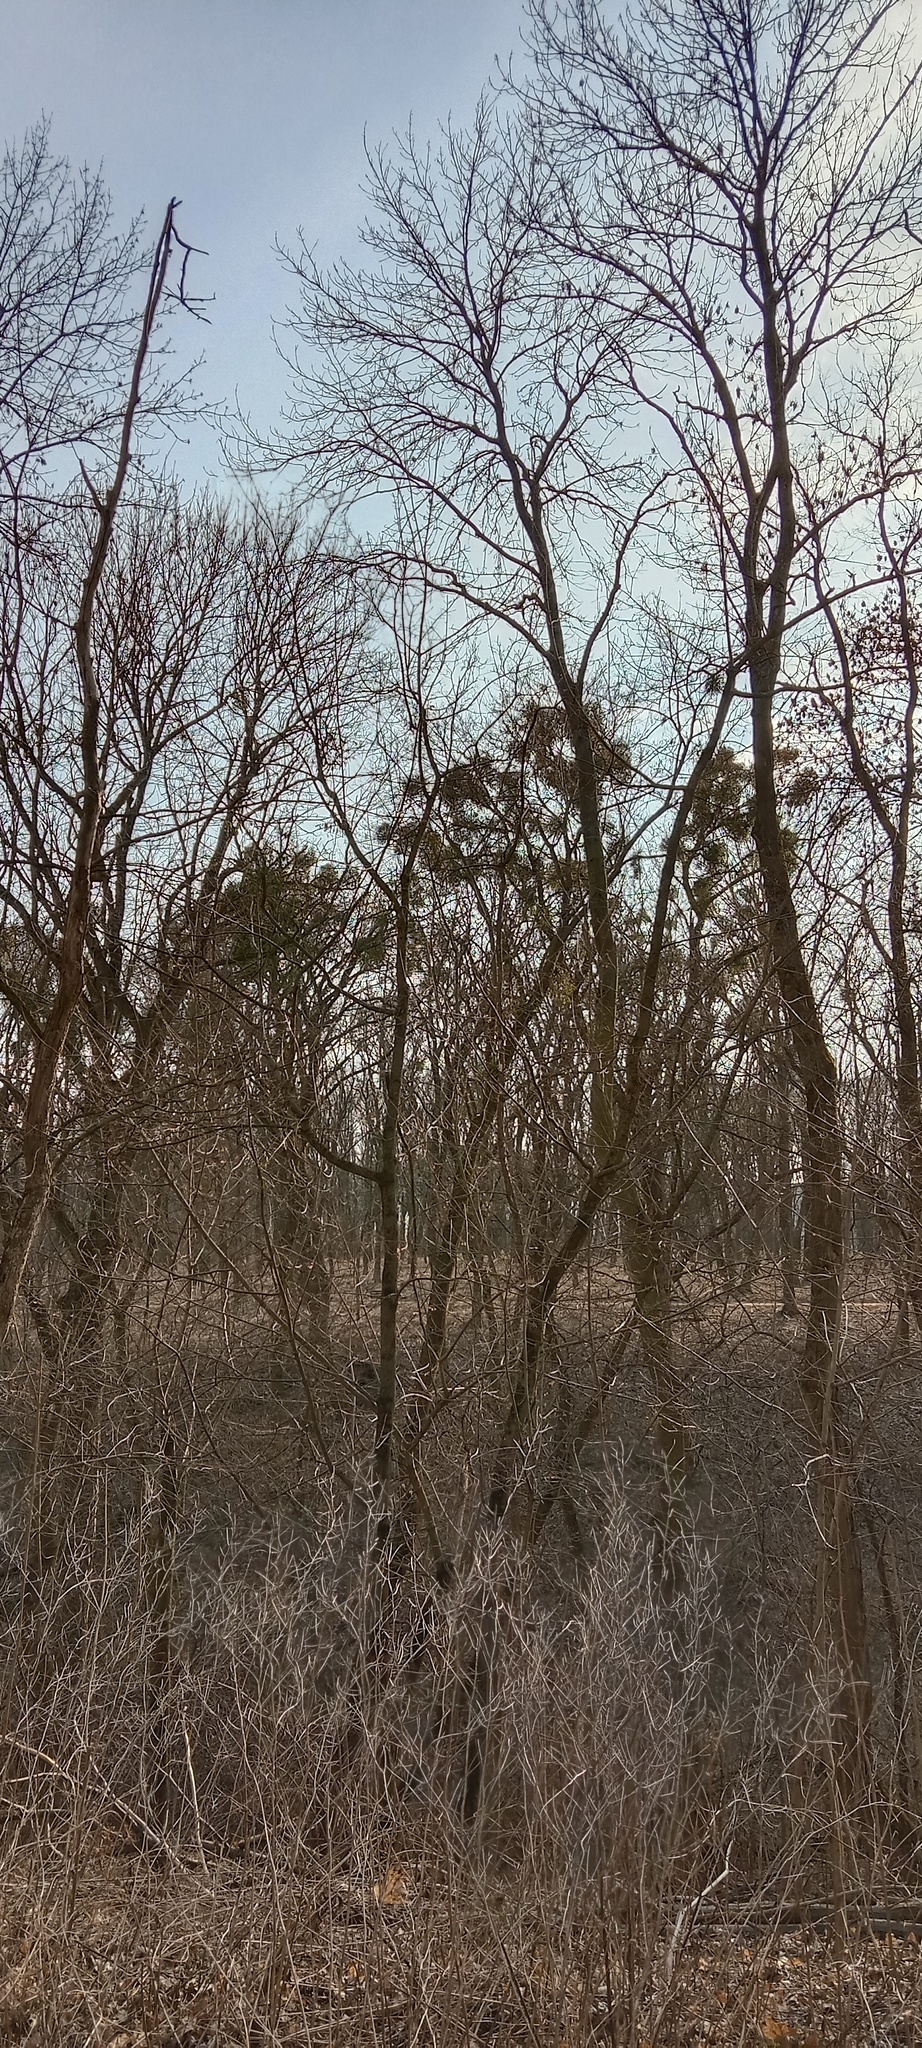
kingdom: Plantae
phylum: Tracheophyta
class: Magnoliopsida
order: Santalales
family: Viscaceae
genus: Viscum
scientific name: Viscum album
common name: Mistletoe
